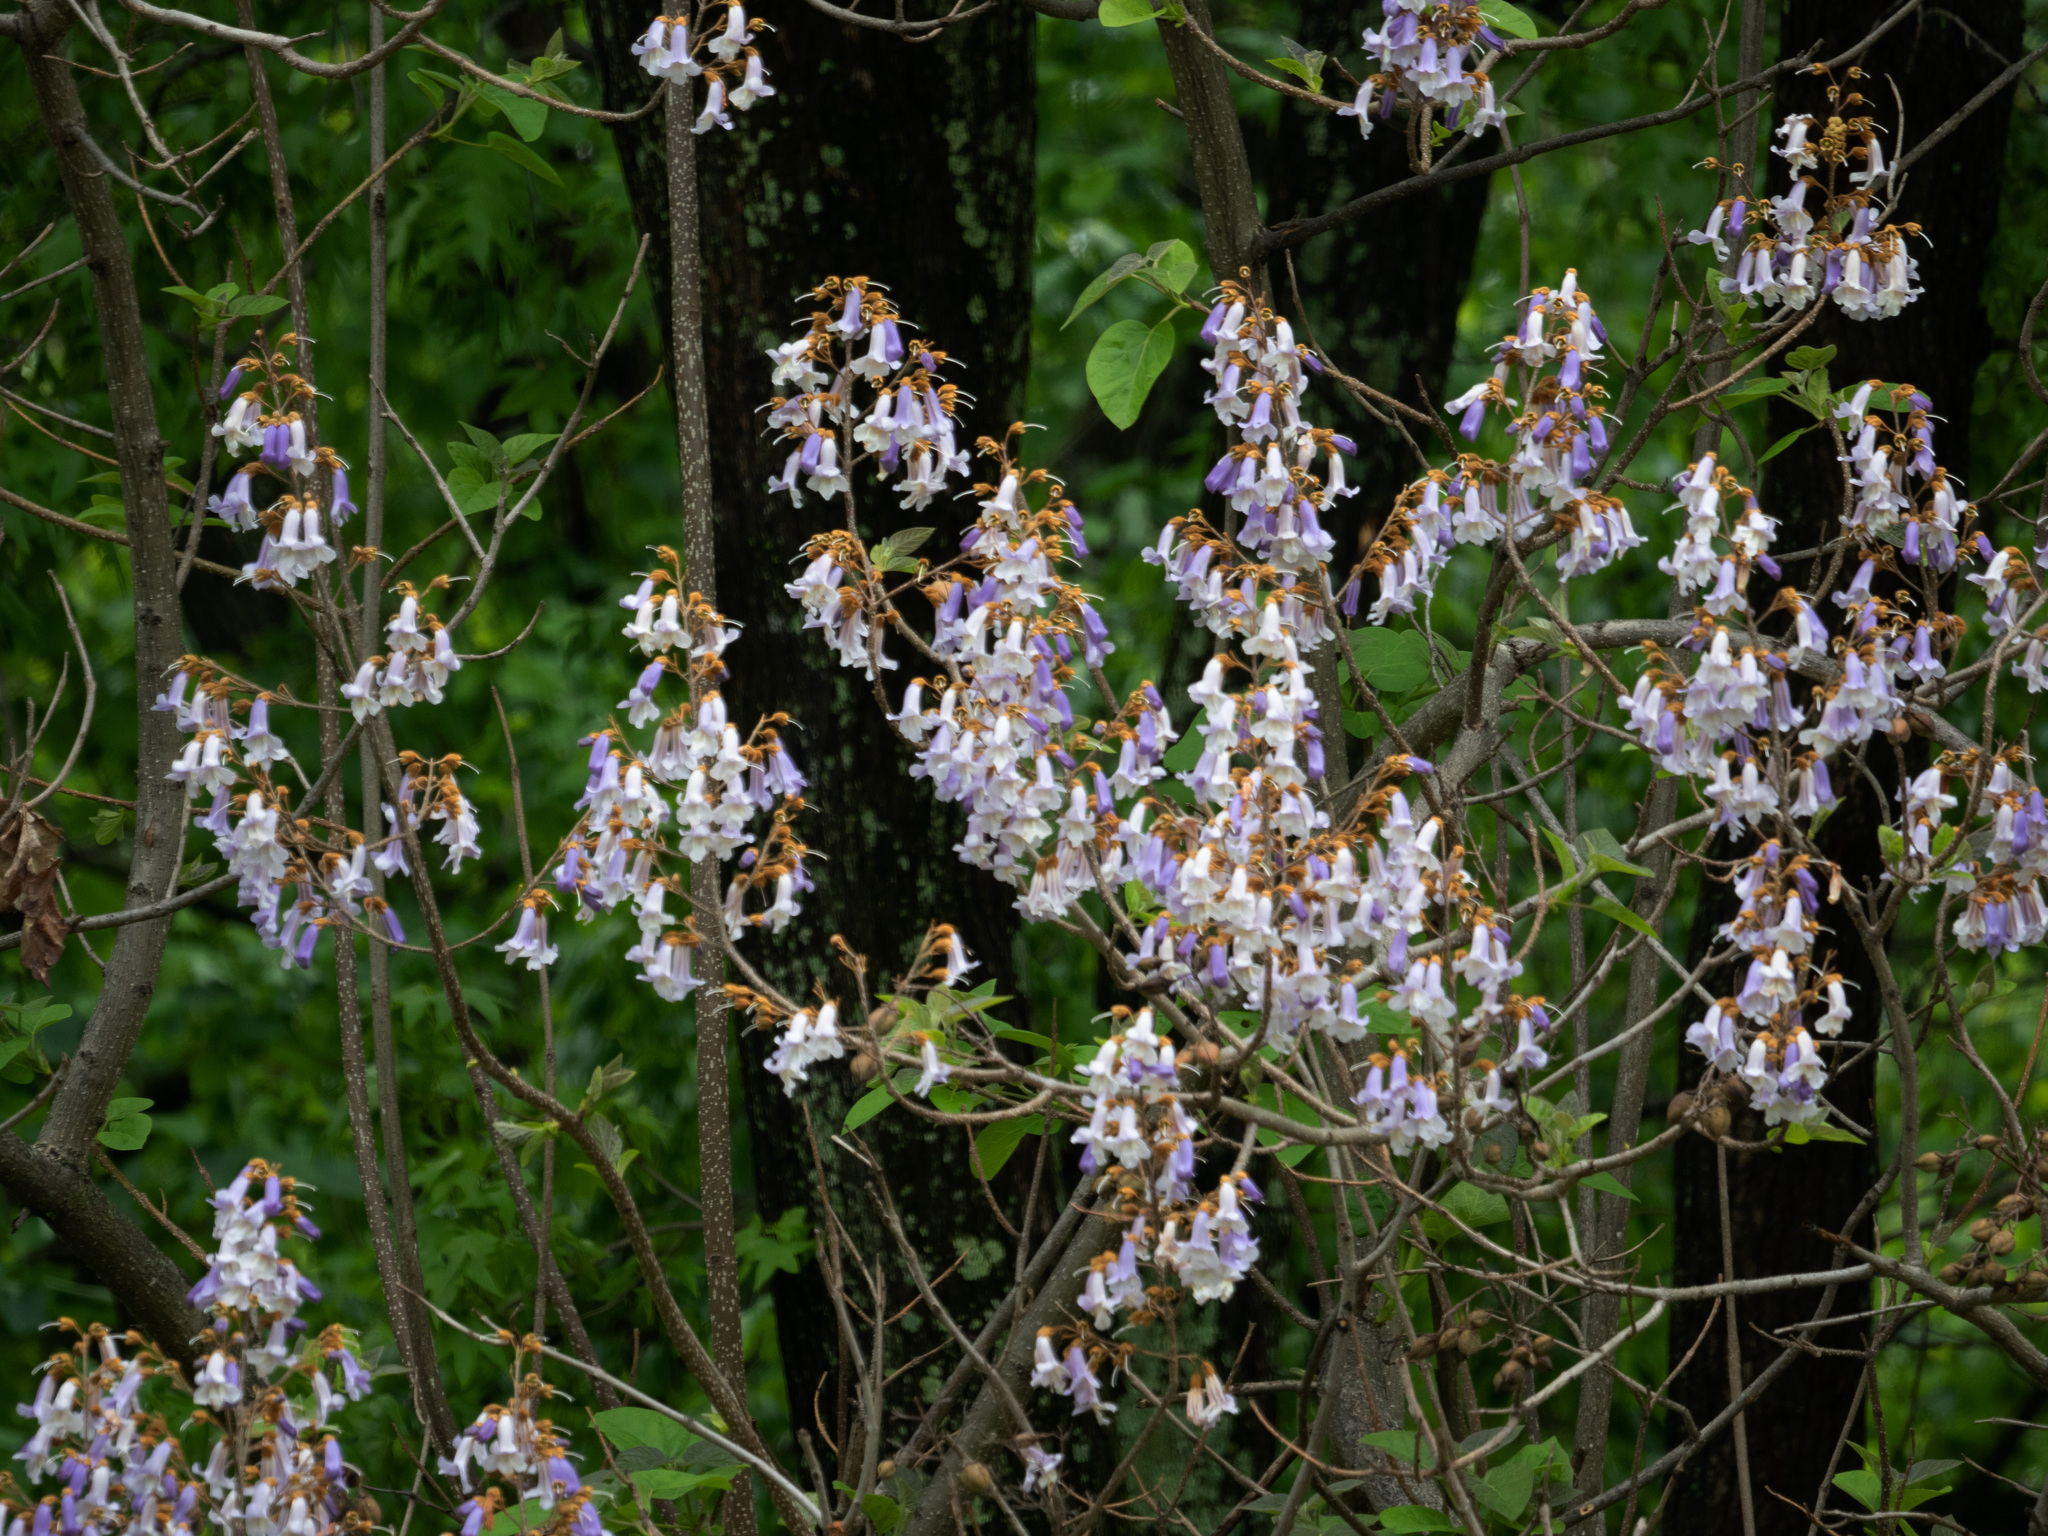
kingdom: Plantae
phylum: Tracheophyta
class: Magnoliopsida
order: Lamiales
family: Paulowniaceae
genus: Paulownia
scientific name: Paulownia tomentosa
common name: Foxglove-tree
